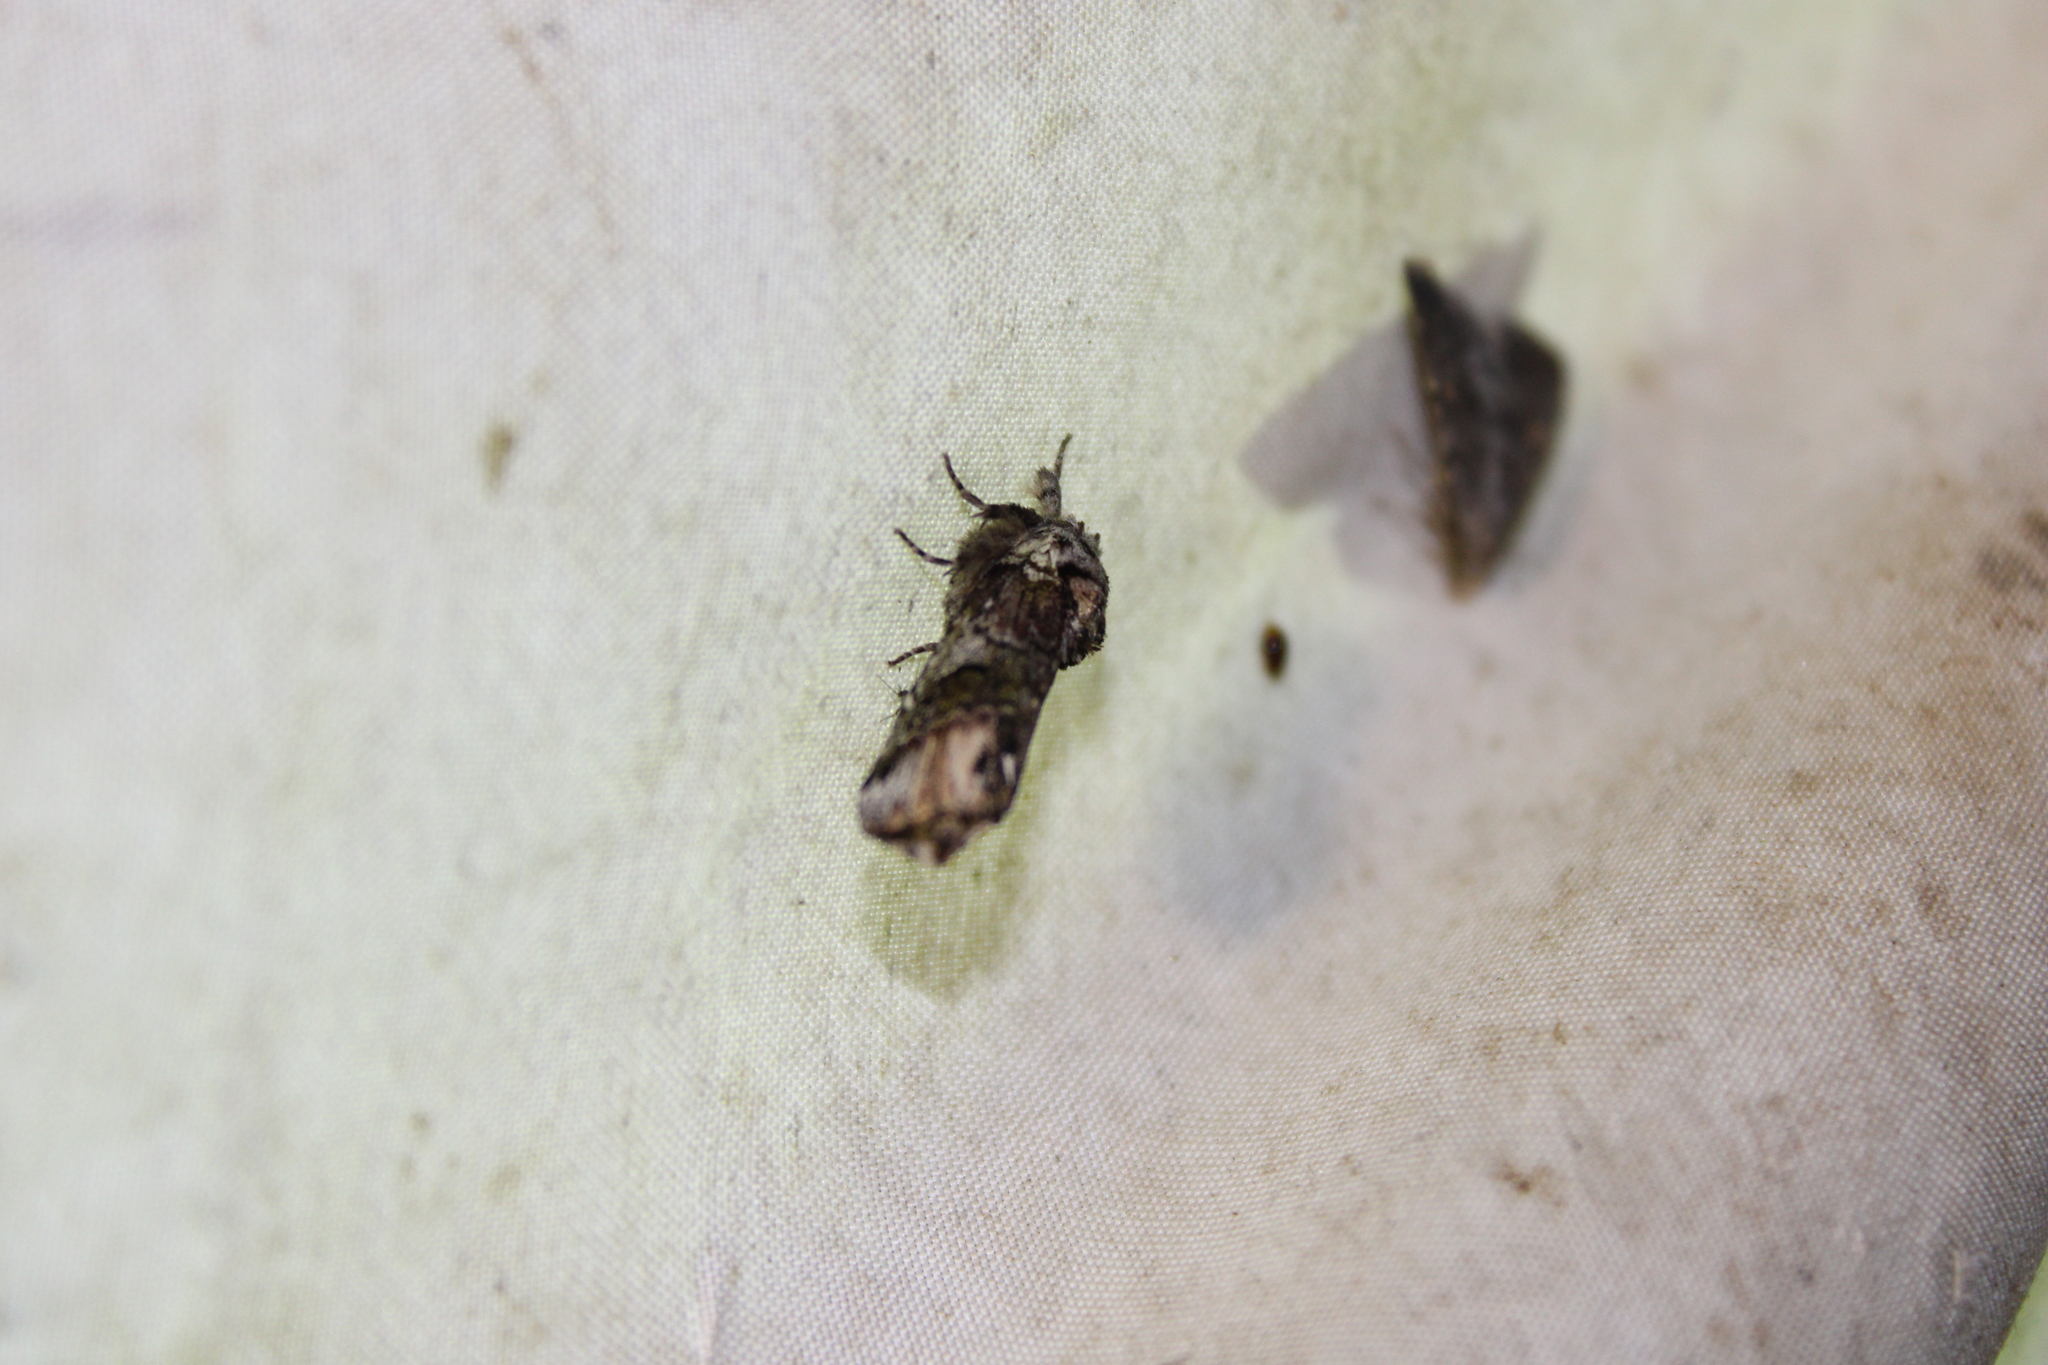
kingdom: Animalia
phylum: Arthropoda
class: Insecta
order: Lepidoptera
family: Notodontidae
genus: Schizura
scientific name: Schizura
